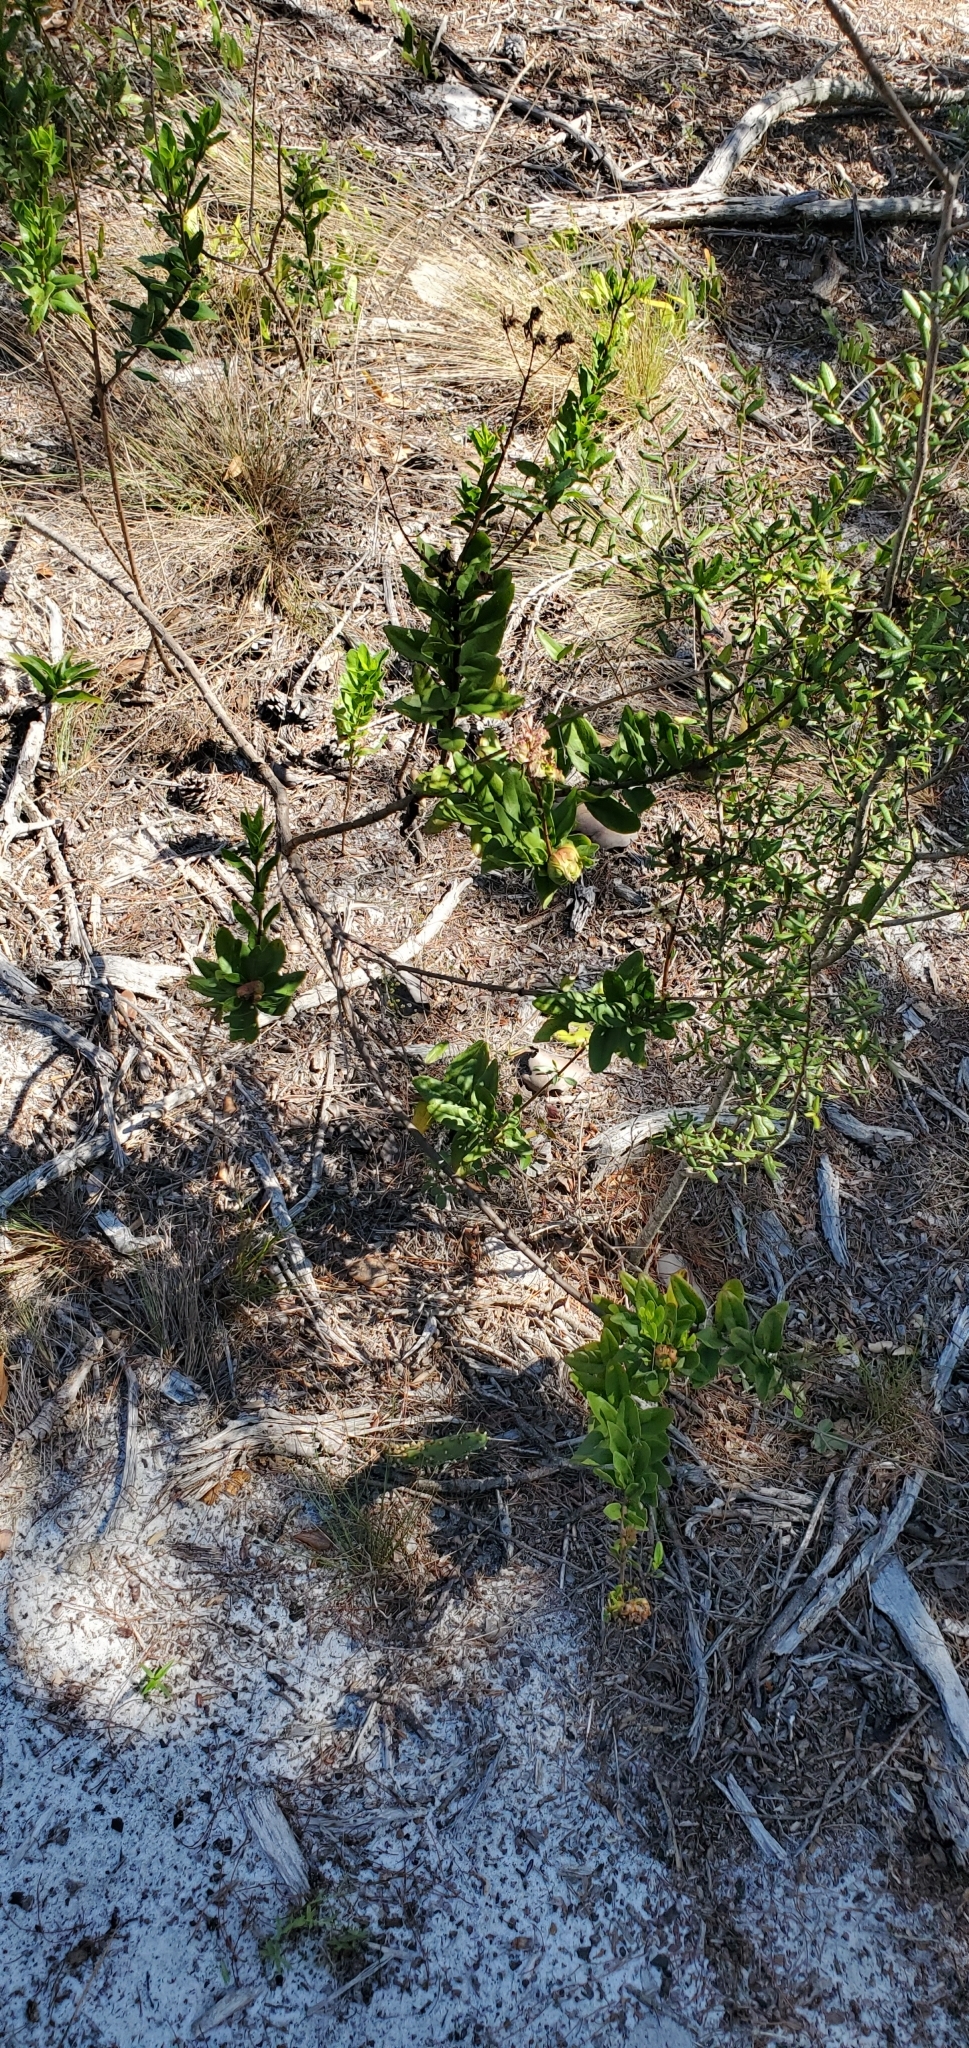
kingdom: Plantae
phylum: Tracheophyta
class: Magnoliopsida
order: Asterales
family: Asteraceae
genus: Palafoxia
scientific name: Palafoxia feayi
